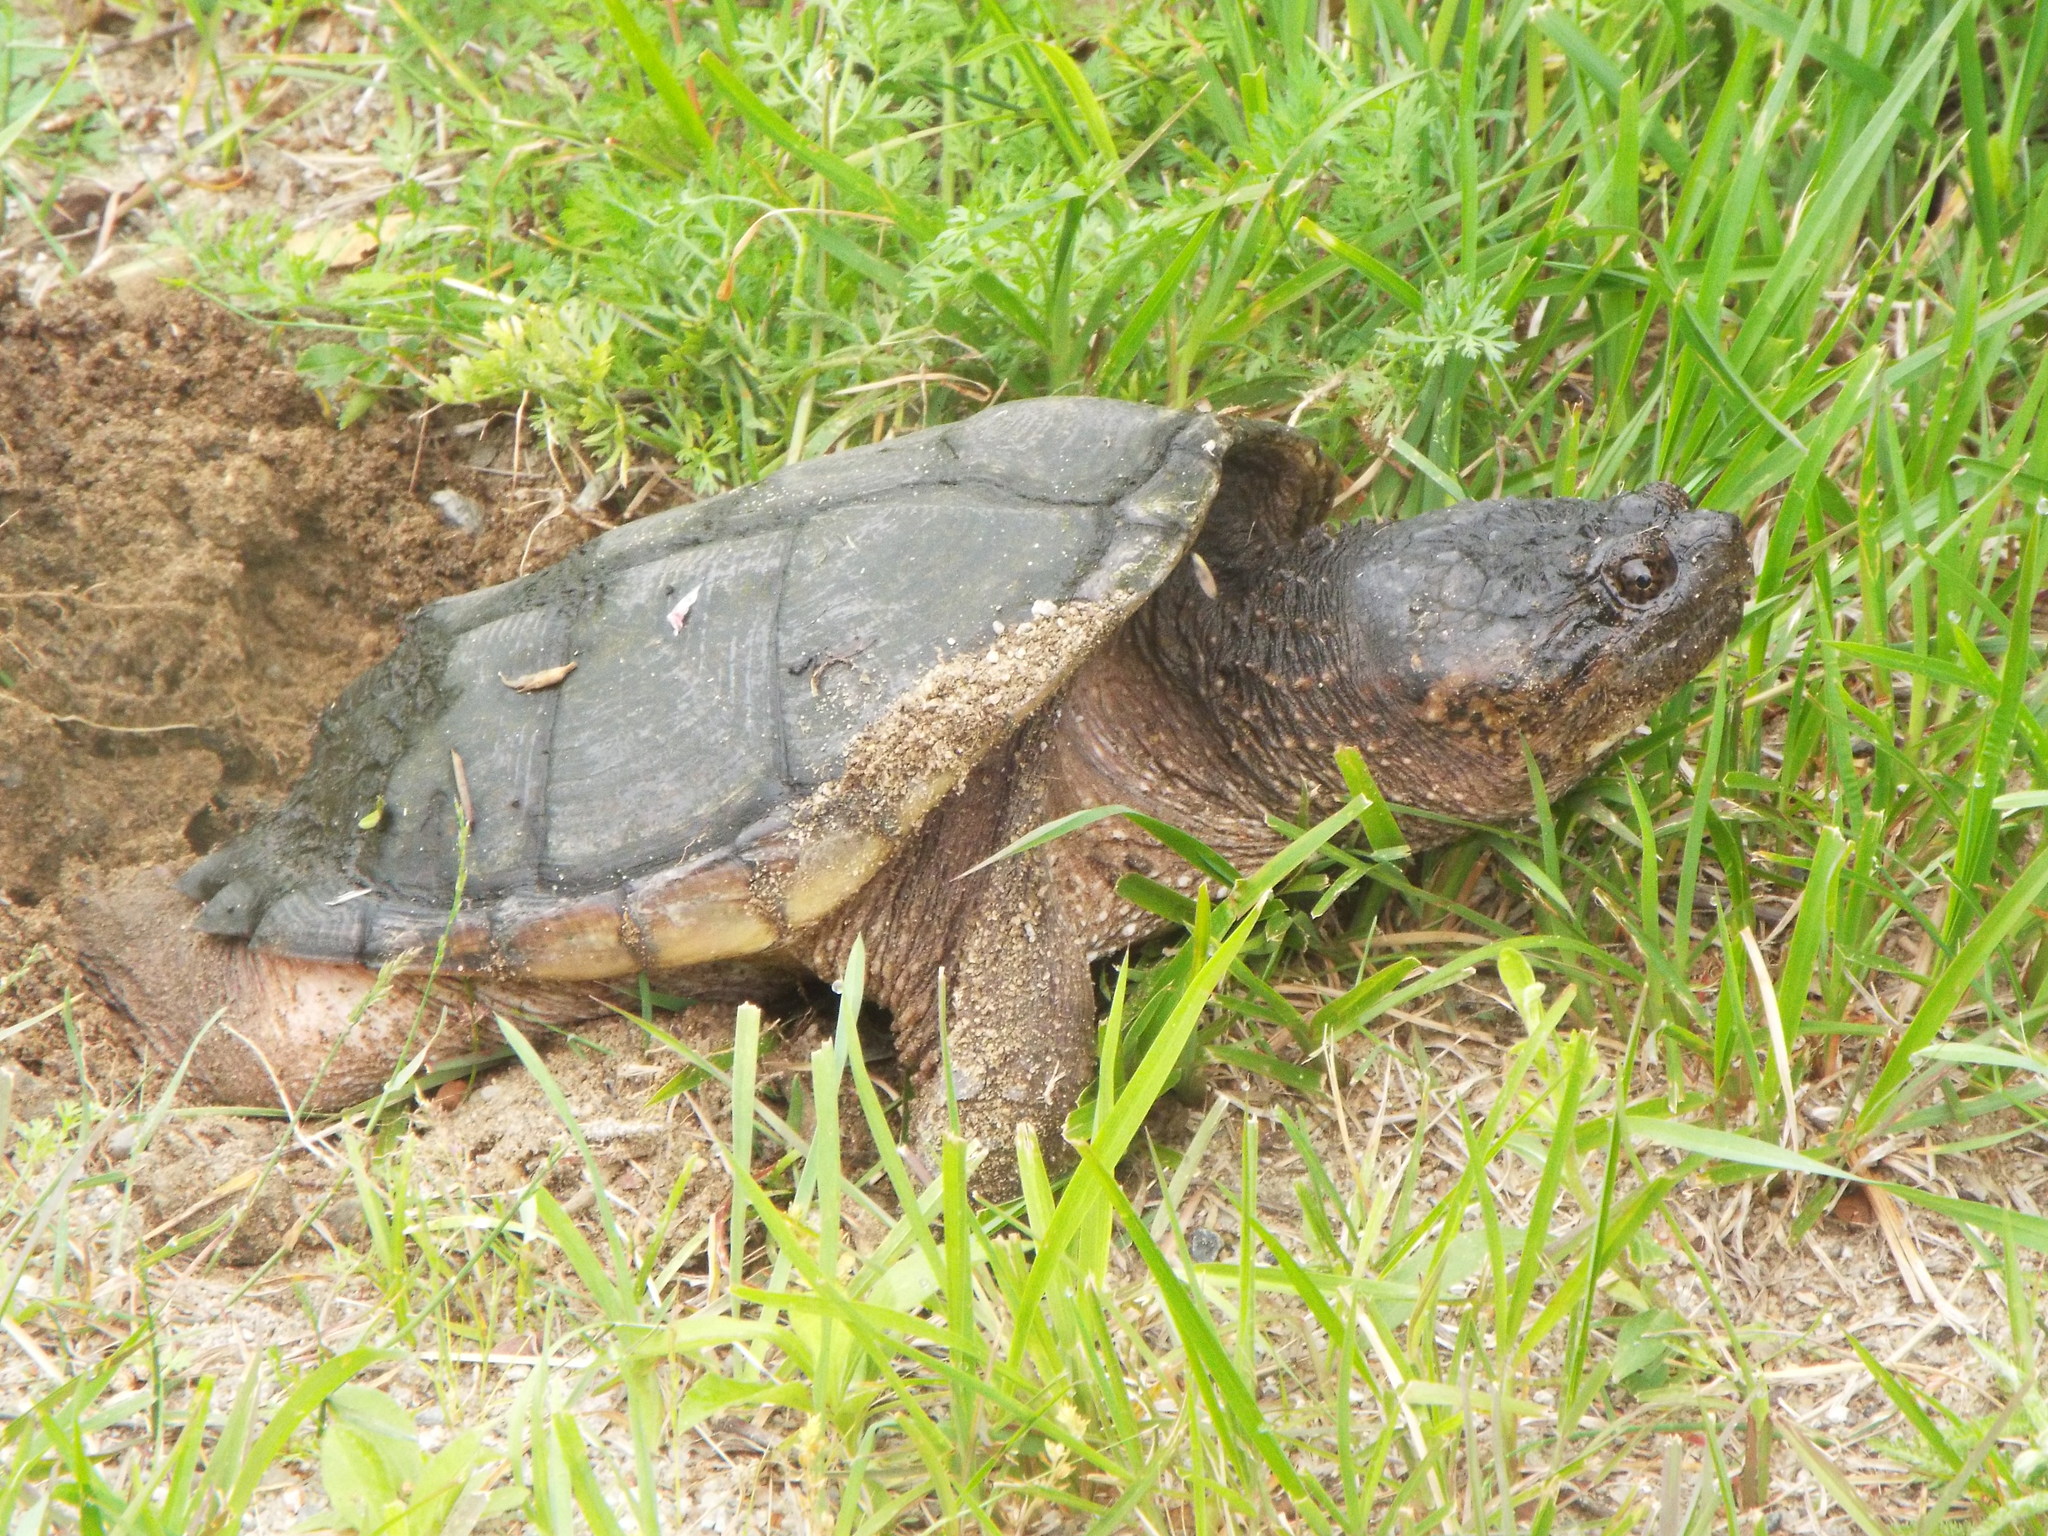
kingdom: Animalia
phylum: Chordata
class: Testudines
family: Chelydridae
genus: Chelydra
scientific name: Chelydra serpentina
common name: Common snapping turtle
